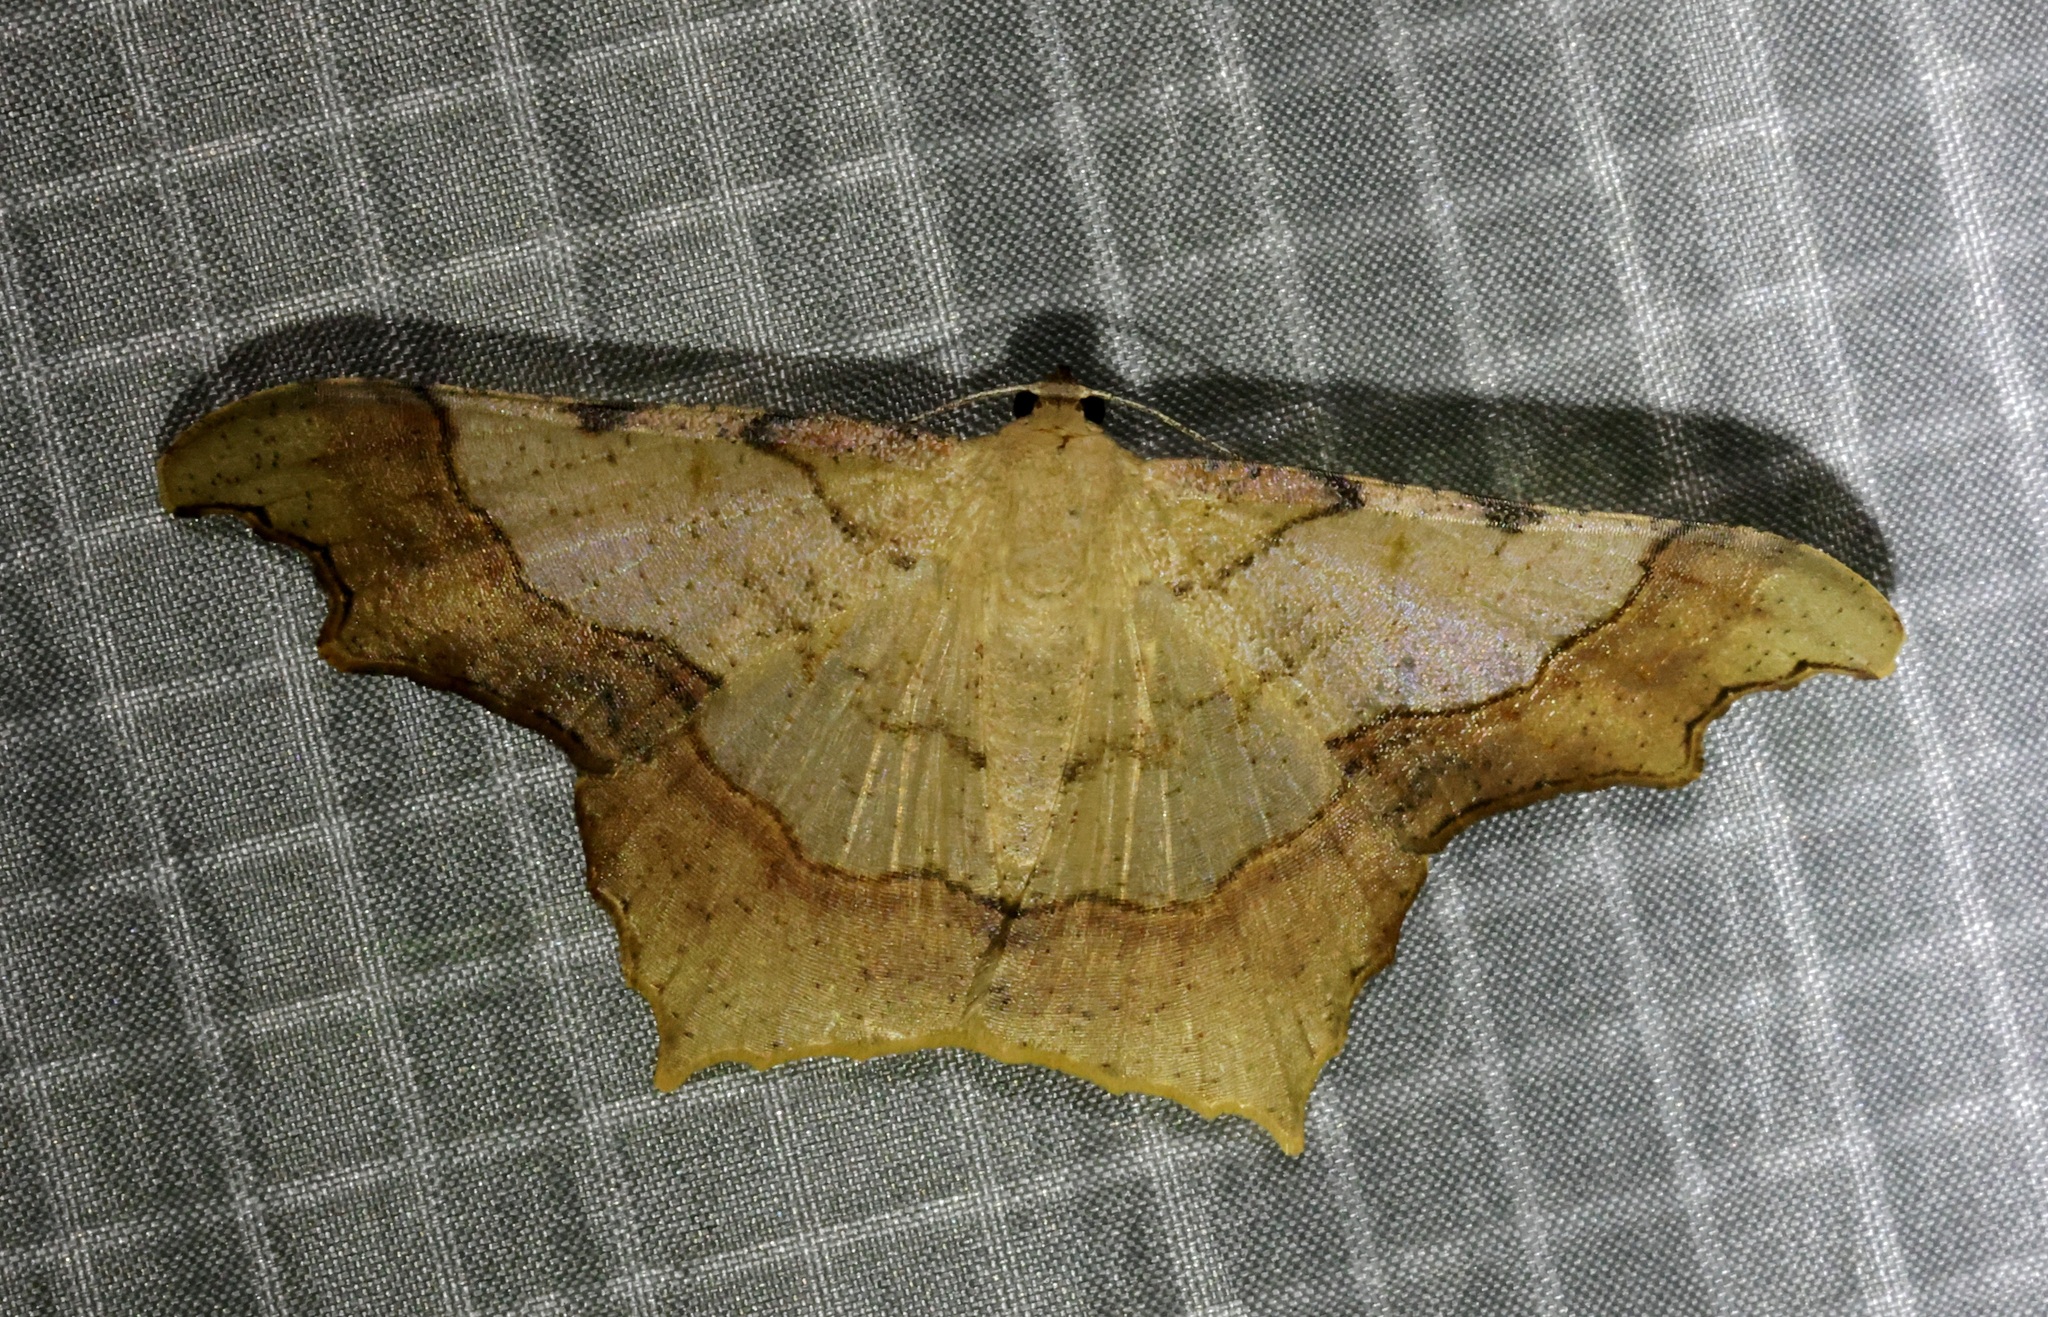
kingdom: Animalia
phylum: Arthropoda
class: Insecta
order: Lepidoptera
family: Geometridae
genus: Zeheba
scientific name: Zeheba aureata
